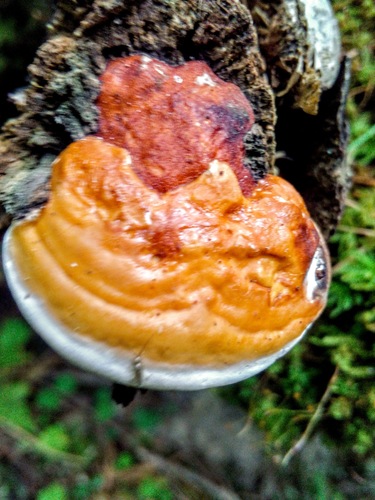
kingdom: Fungi
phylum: Basidiomycota
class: Agaricomycetes
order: Polyporales
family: Fomitopsidaceae
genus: Fomitopsis
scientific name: Fomitopsis pinicola
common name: Red-belted bracket
